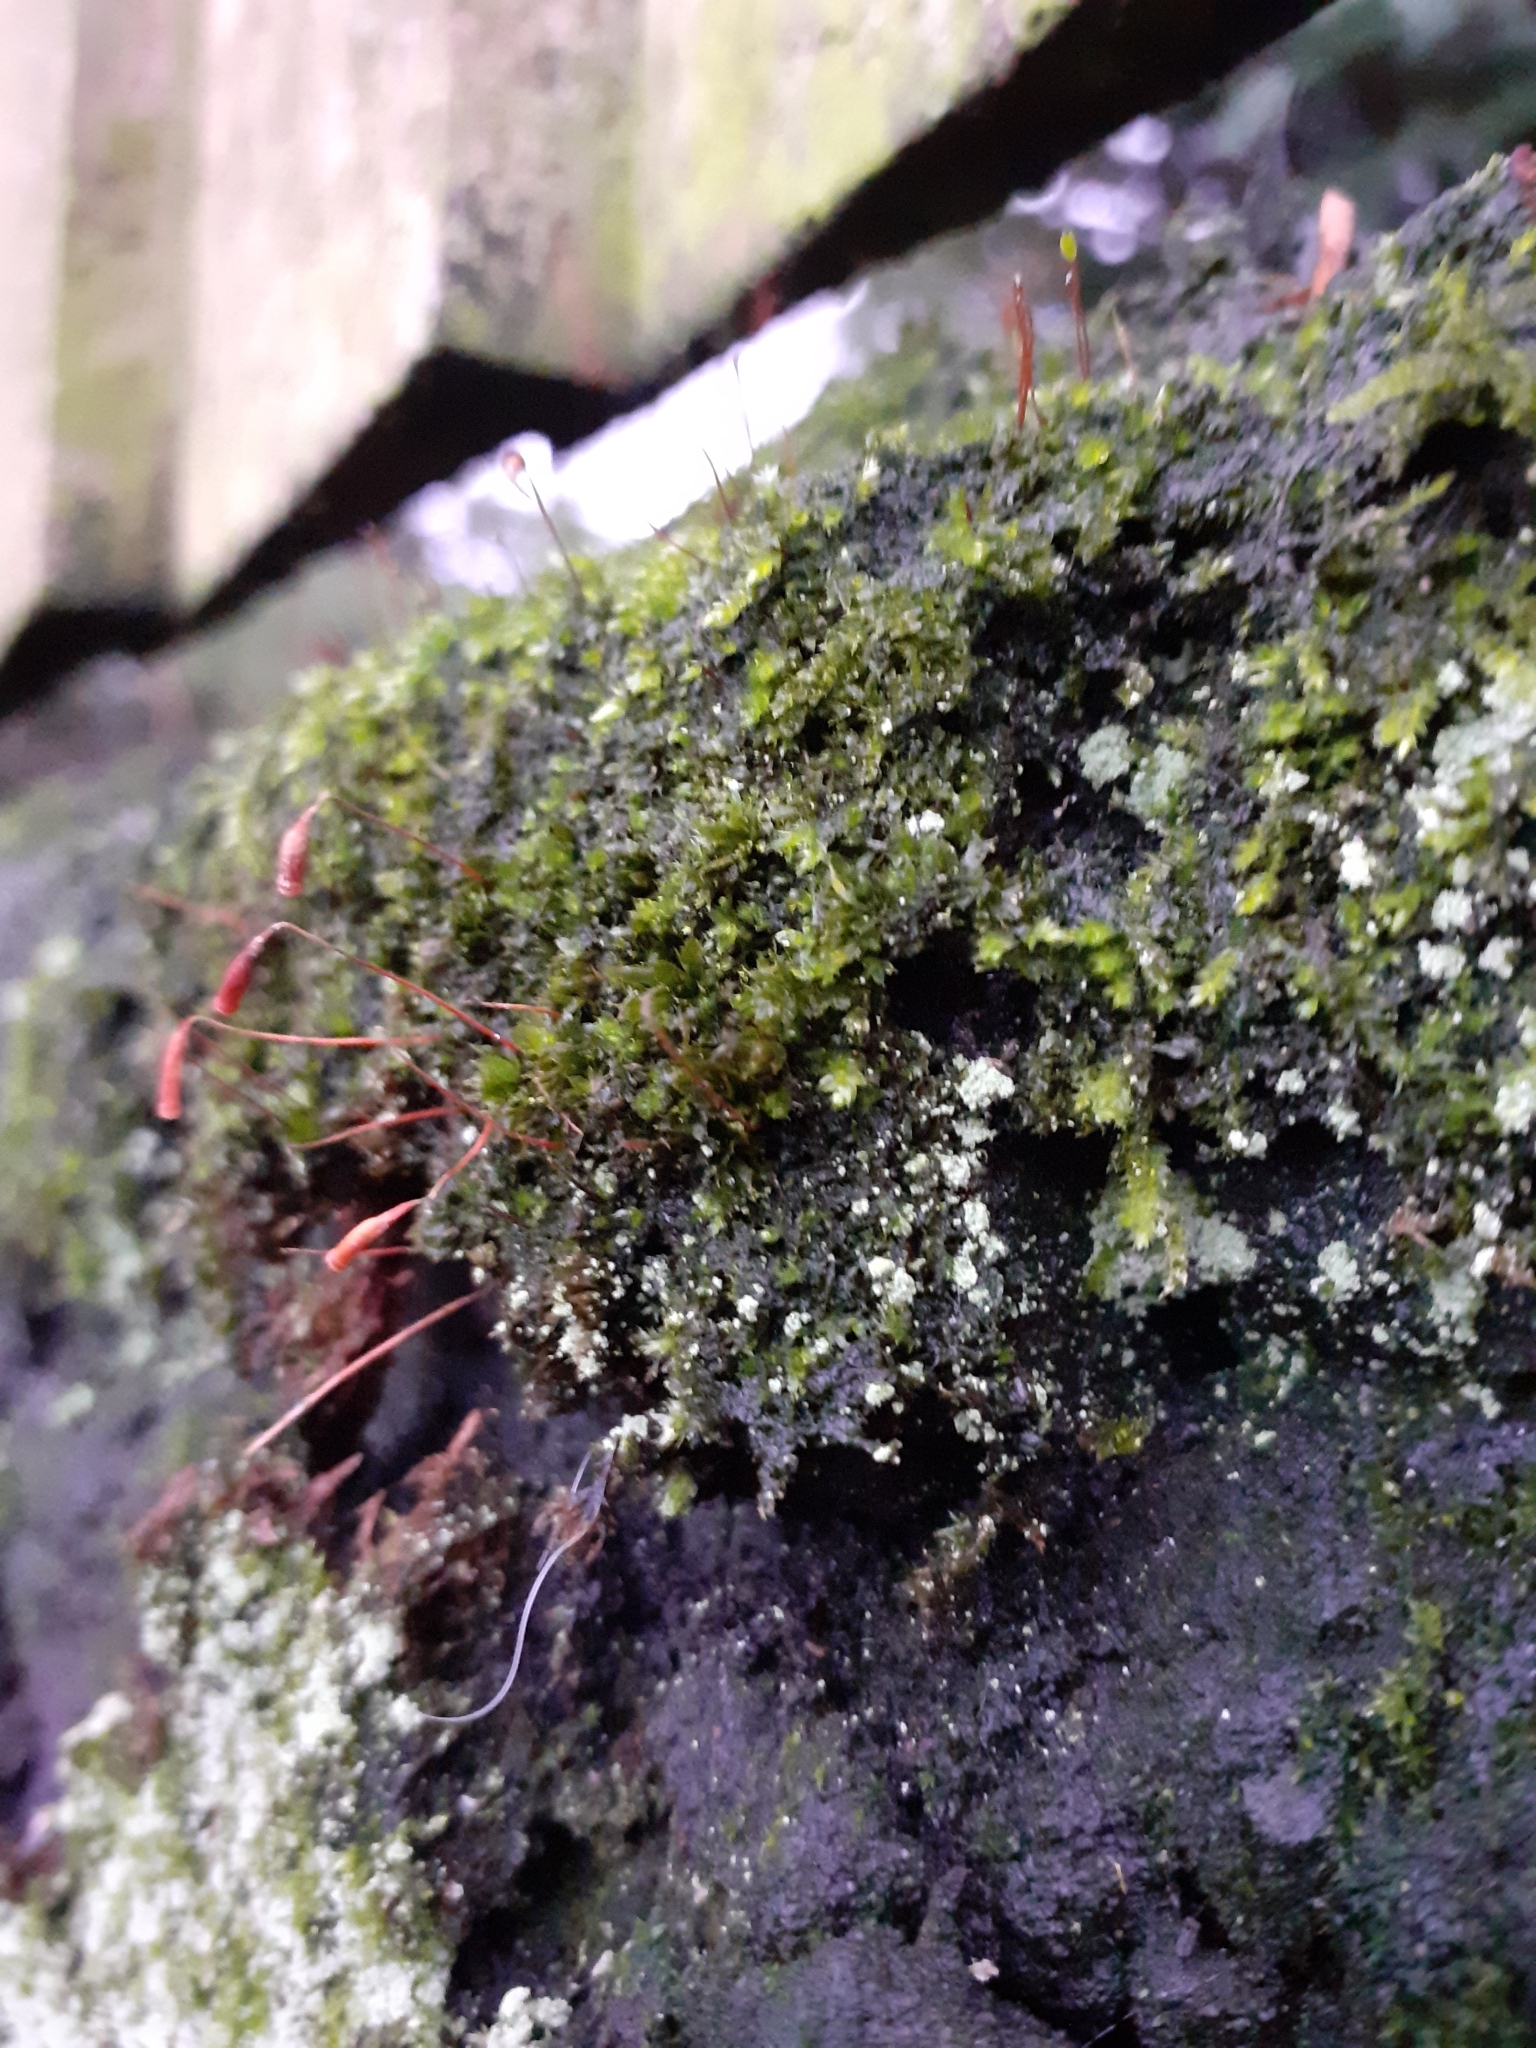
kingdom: Plantae
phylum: Bryophyta
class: Bryopsida
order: Bryales
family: Bryaceae
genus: Rosulabryum
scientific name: Rosulabryum capillare
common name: Capillary thread-moss
